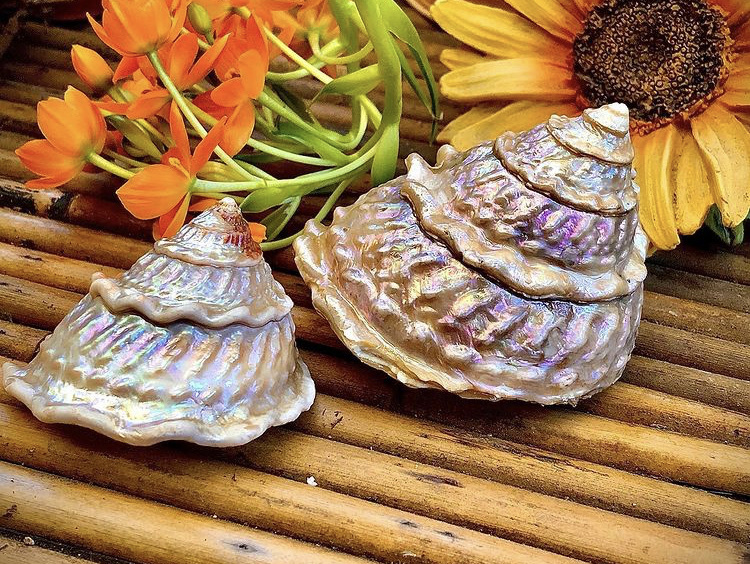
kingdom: Animalia
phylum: Mollusca
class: Gastropoda
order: Trochida
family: Turbinidae
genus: Megastraea
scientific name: Megastraea undosa
